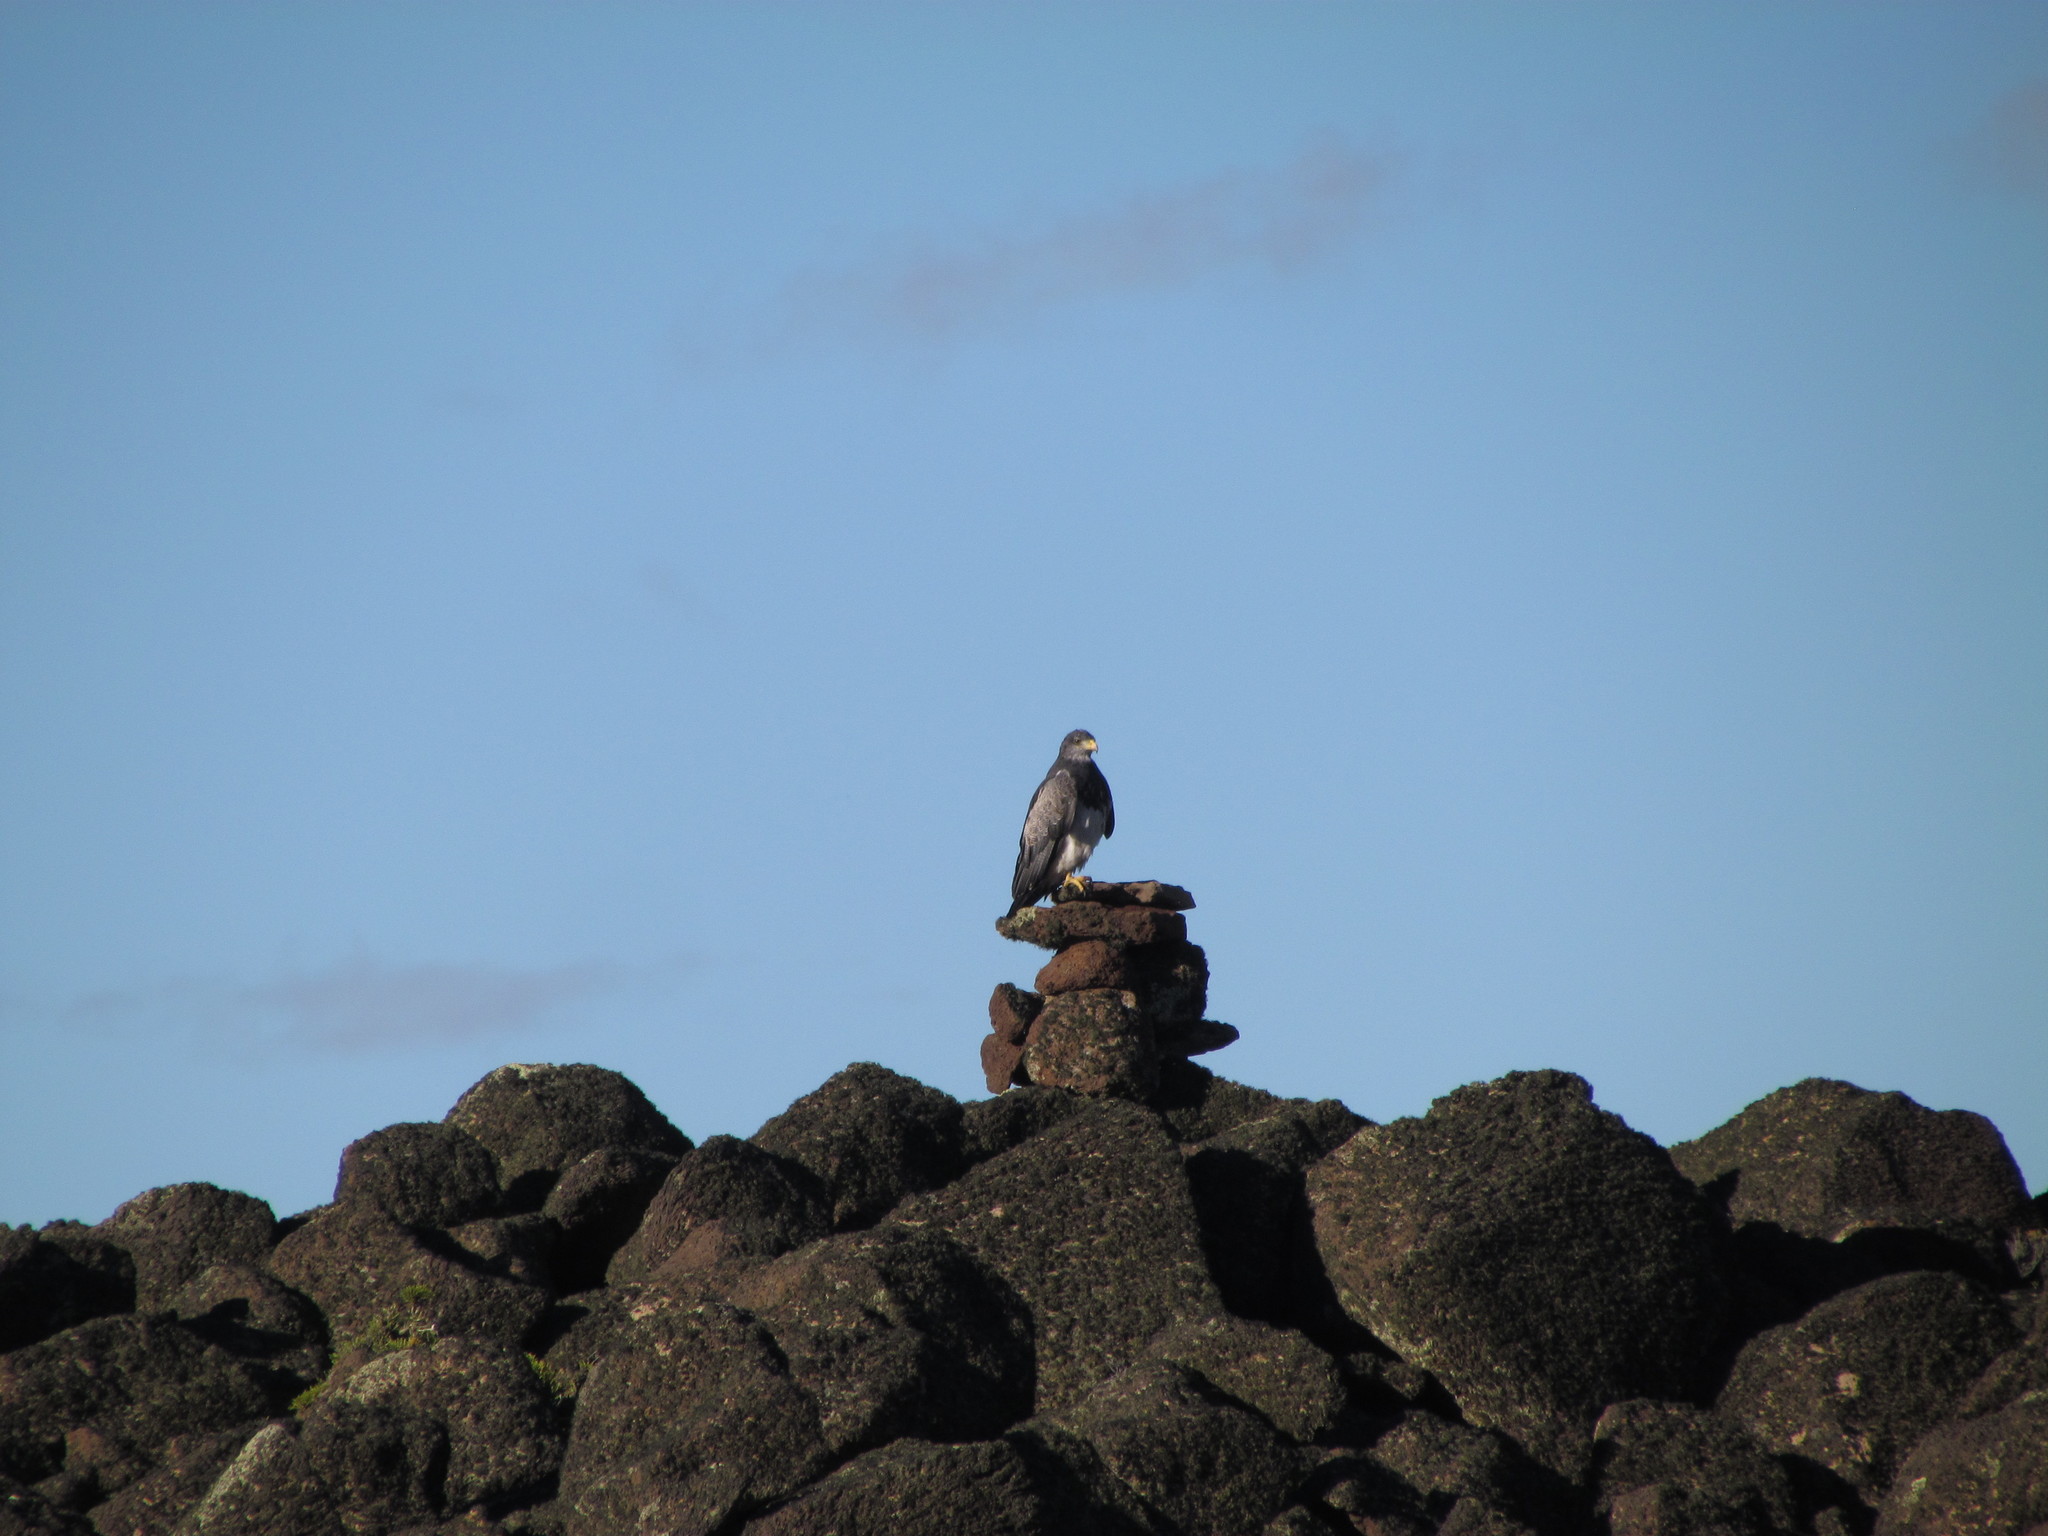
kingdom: Animalia
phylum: Chordata
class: Aves
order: Accipitriformes
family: Accipitridae
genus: Geranoaetus
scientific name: Geranoaetus melanoleucus
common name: Black-chested buzzard-eagle
